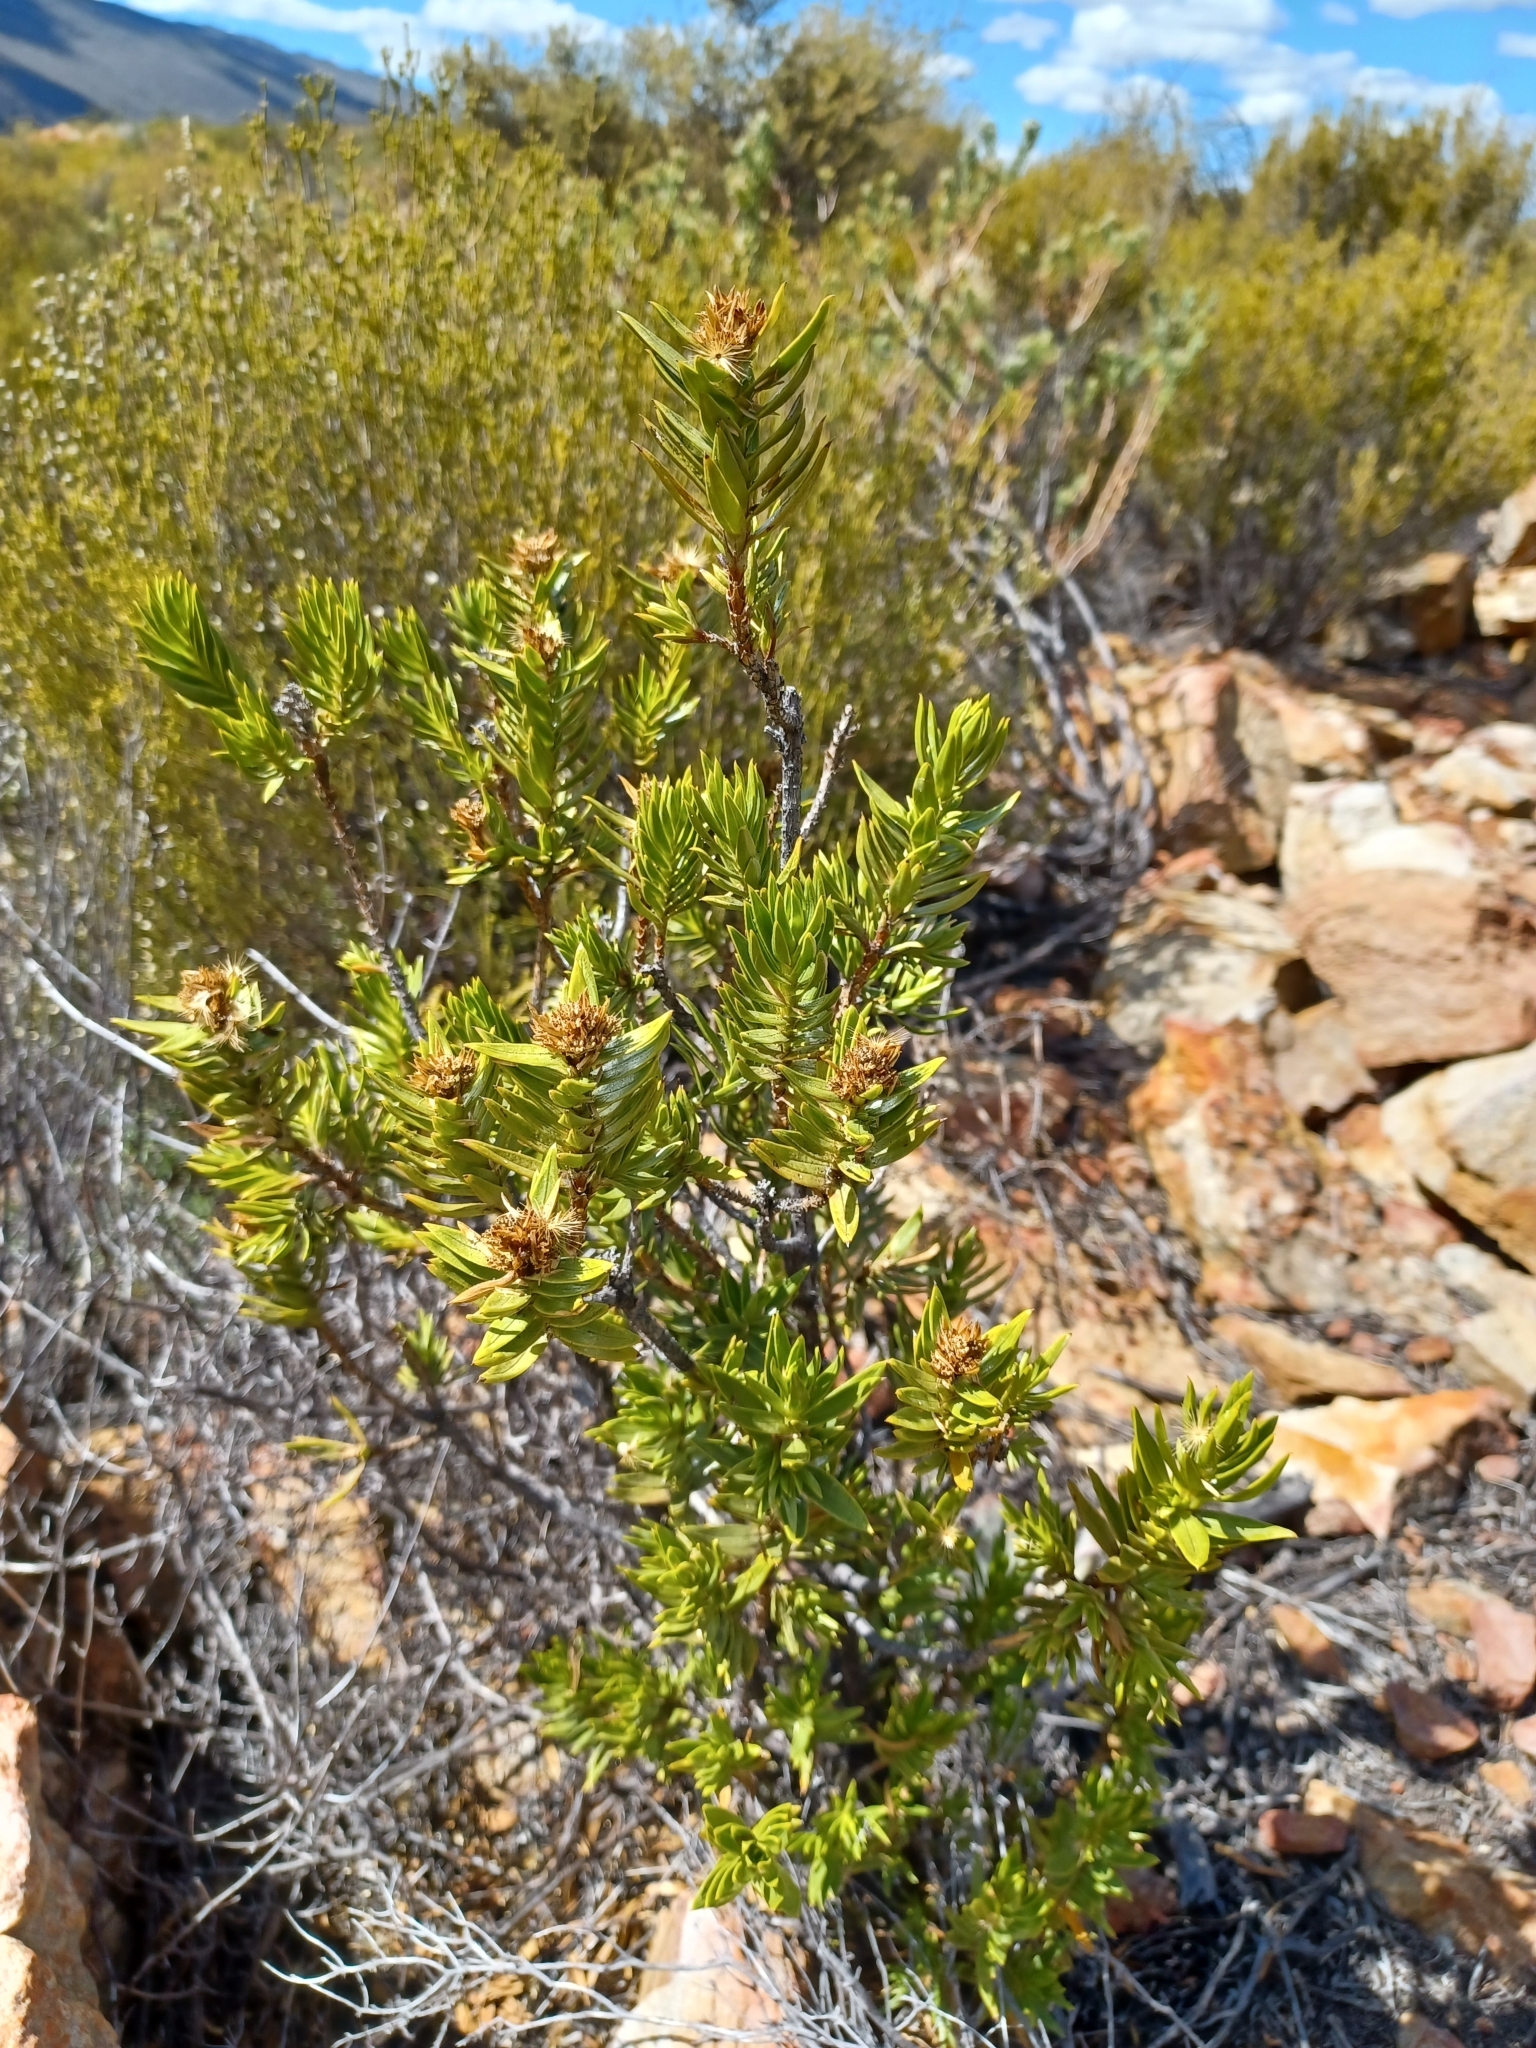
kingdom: Plantae
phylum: Tracheophyta
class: Magnoliopsida
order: Asterales
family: Asteraceae
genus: Pteronia
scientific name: Pteronia fasciculata
